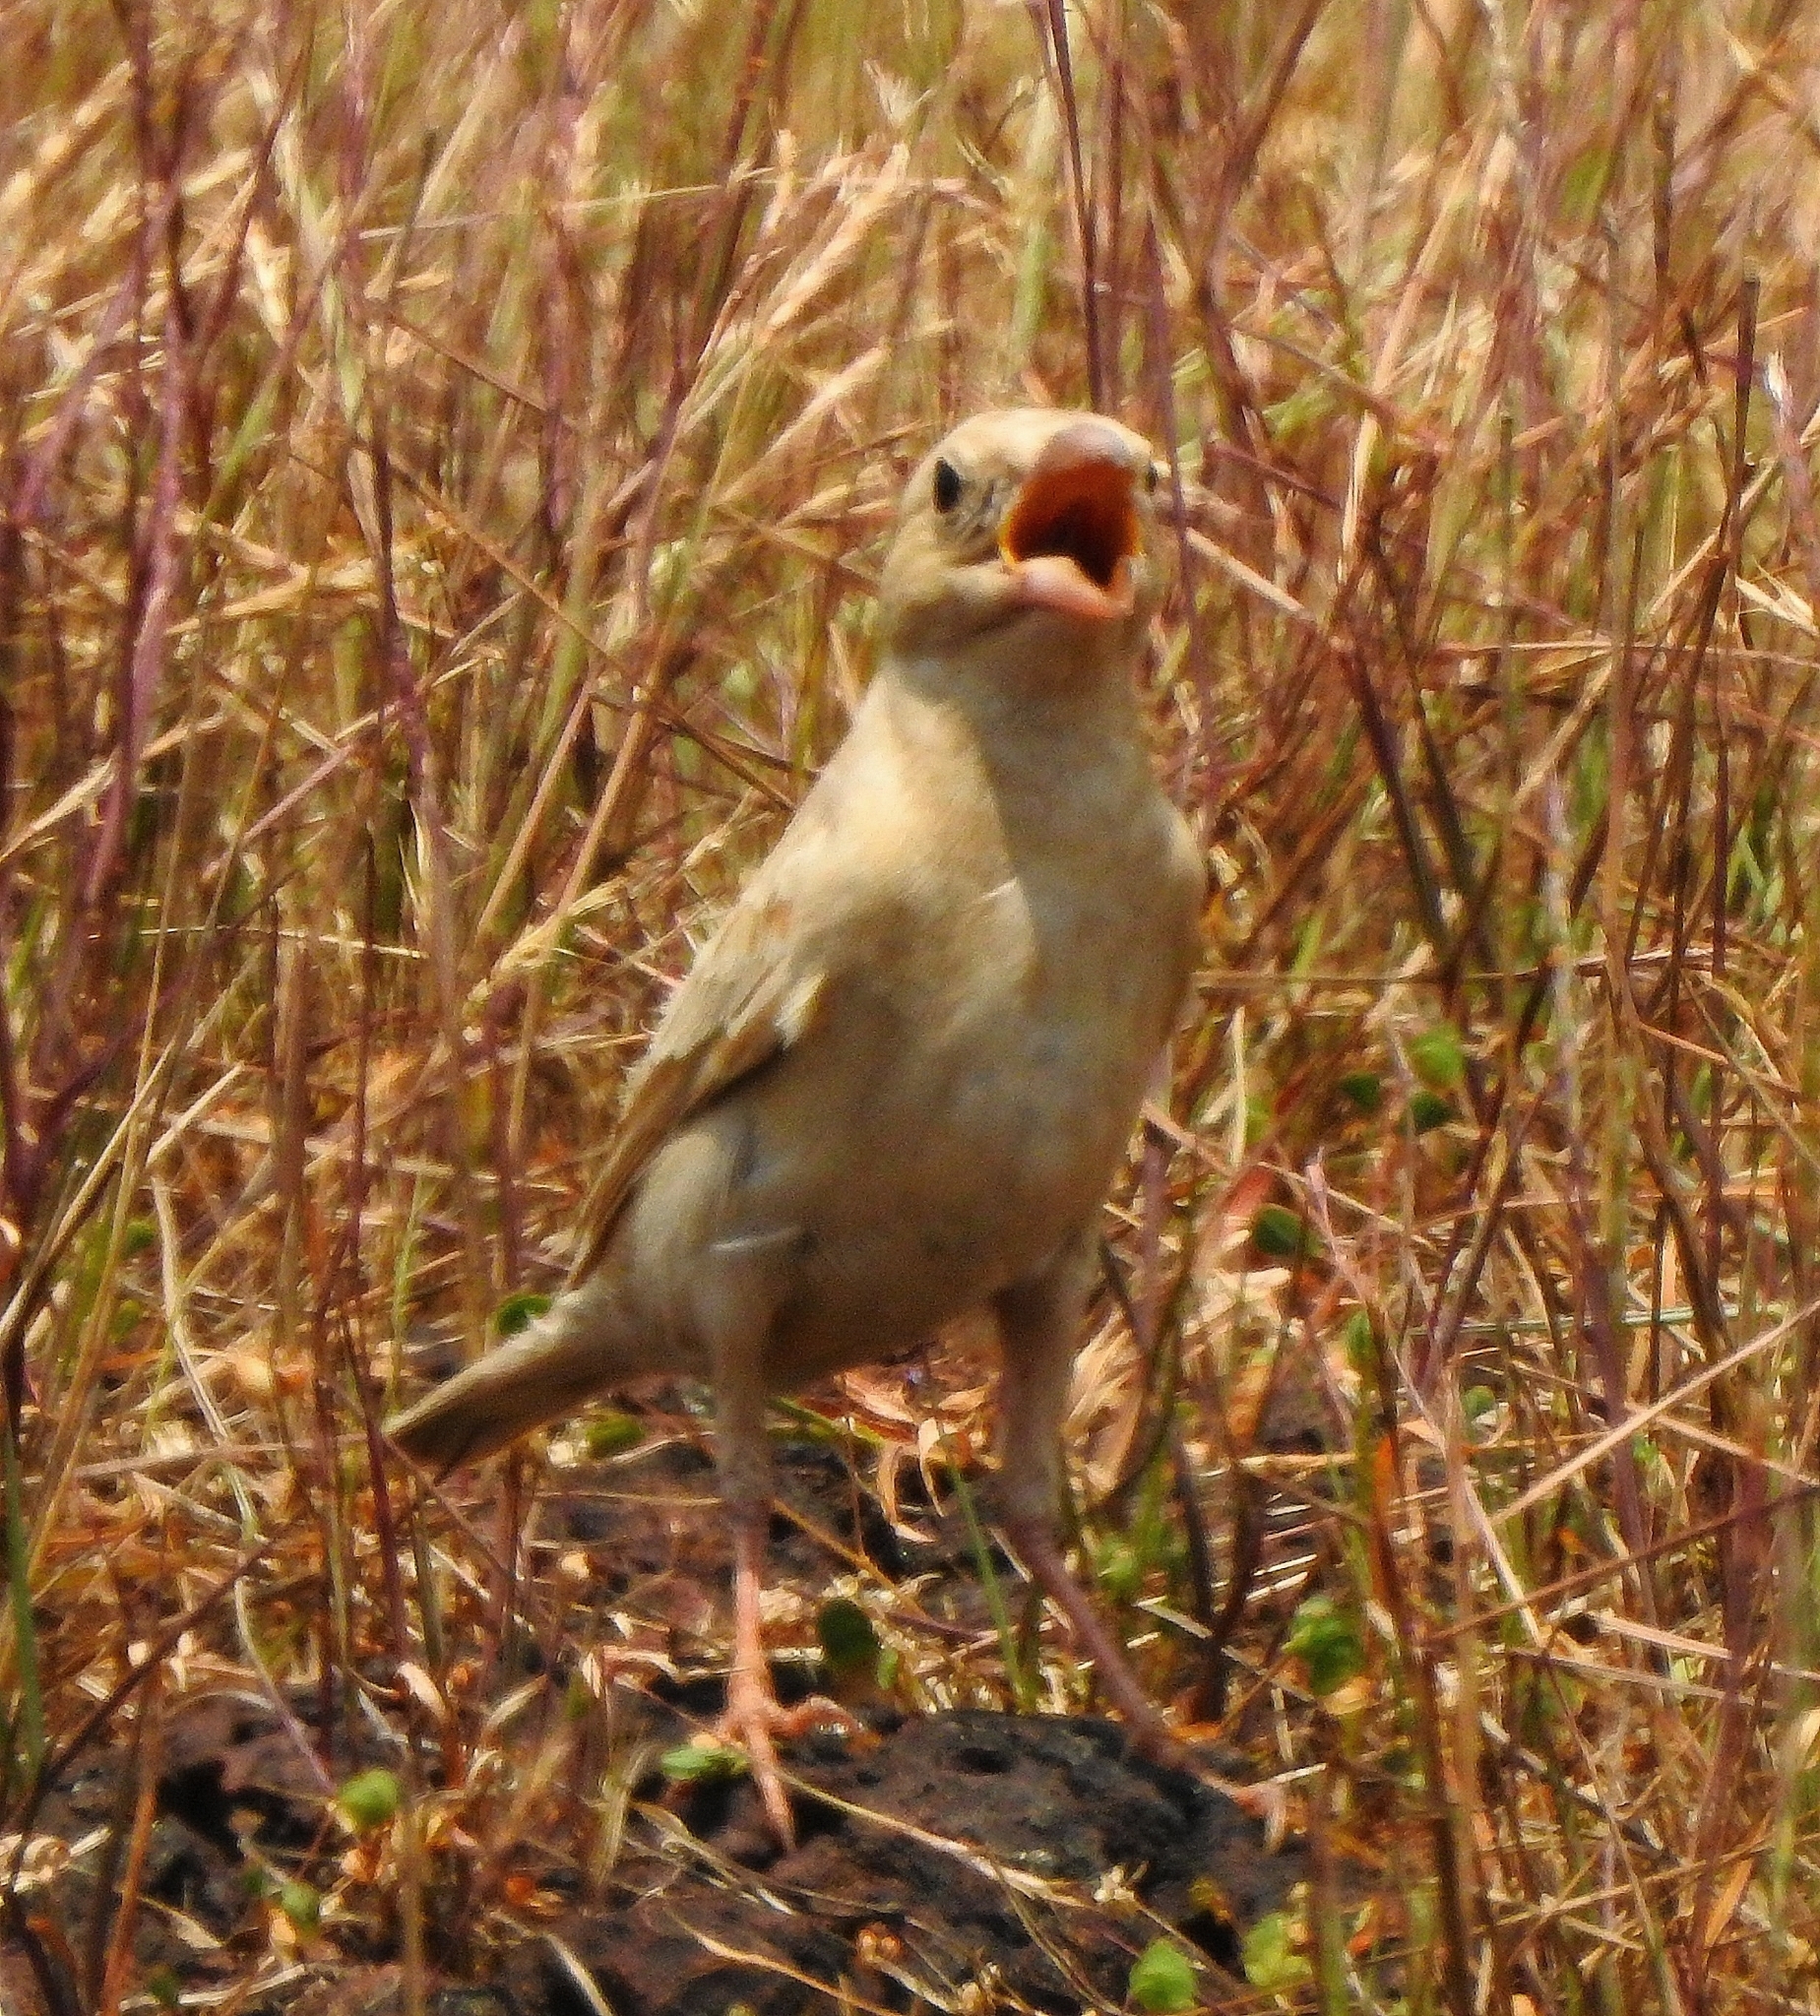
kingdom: Animalia
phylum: Chordata
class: Aves
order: Passeriformes
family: Passeridae
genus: Carpospiza
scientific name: Carpospiza brachydactyla
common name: Pale rockfinch
